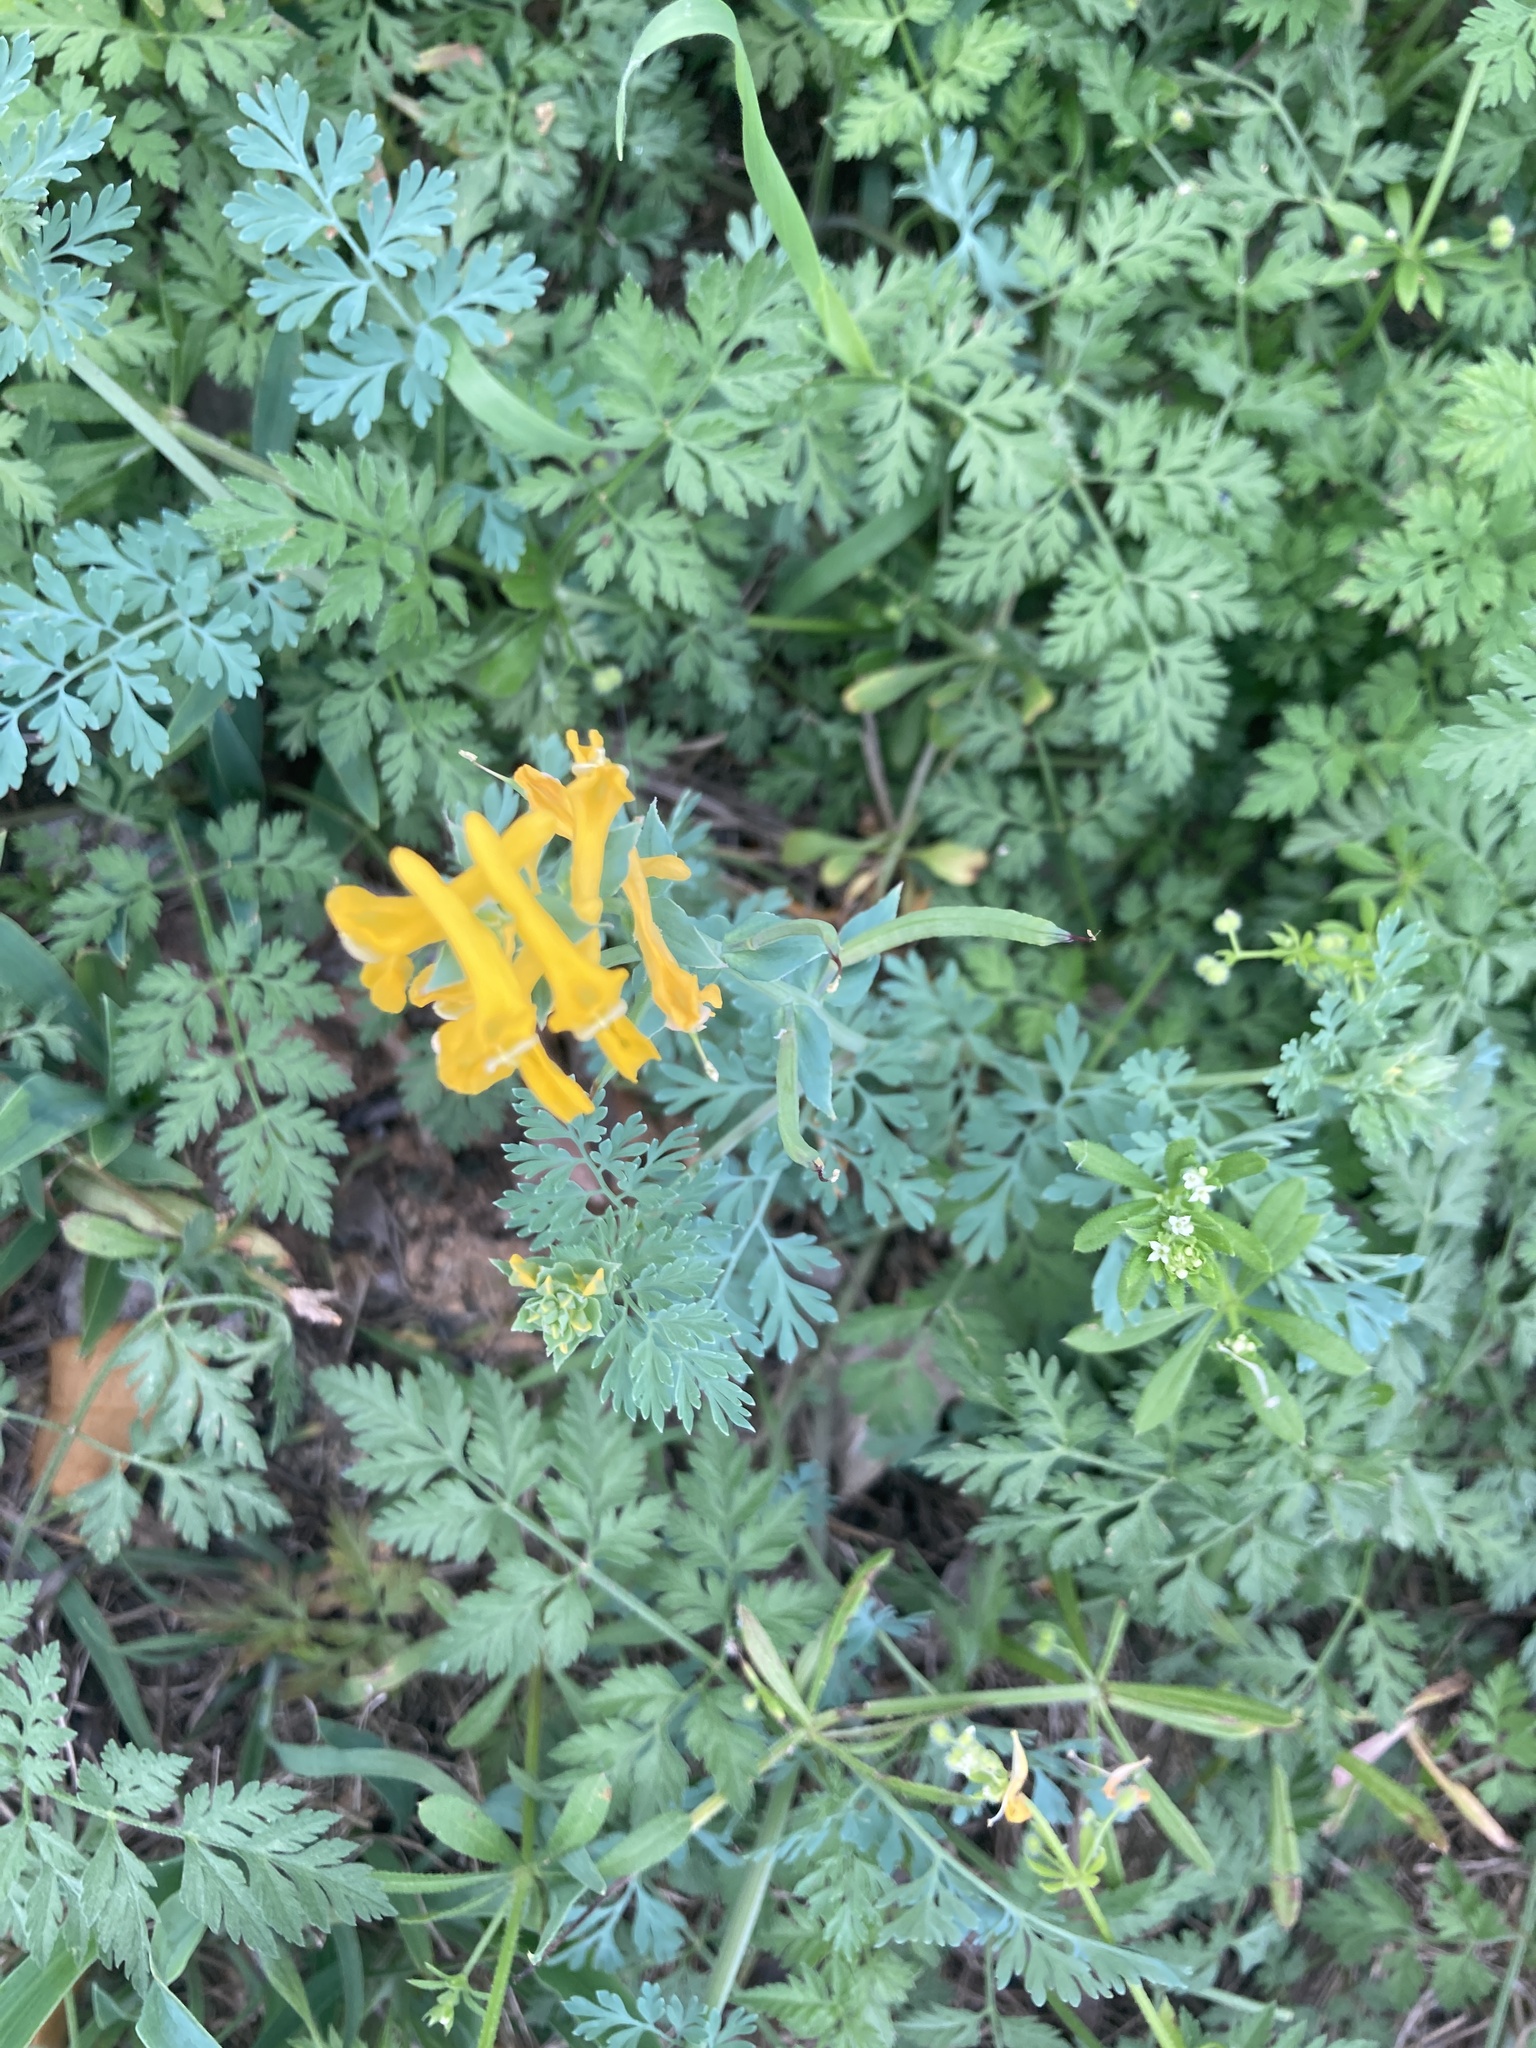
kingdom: Plantae
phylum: Tracheophyta
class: Magnoliopsida
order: Ranunculales
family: Papaveraceae
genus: Corydalis
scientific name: Corydalis aurea
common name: Golden corydalis
